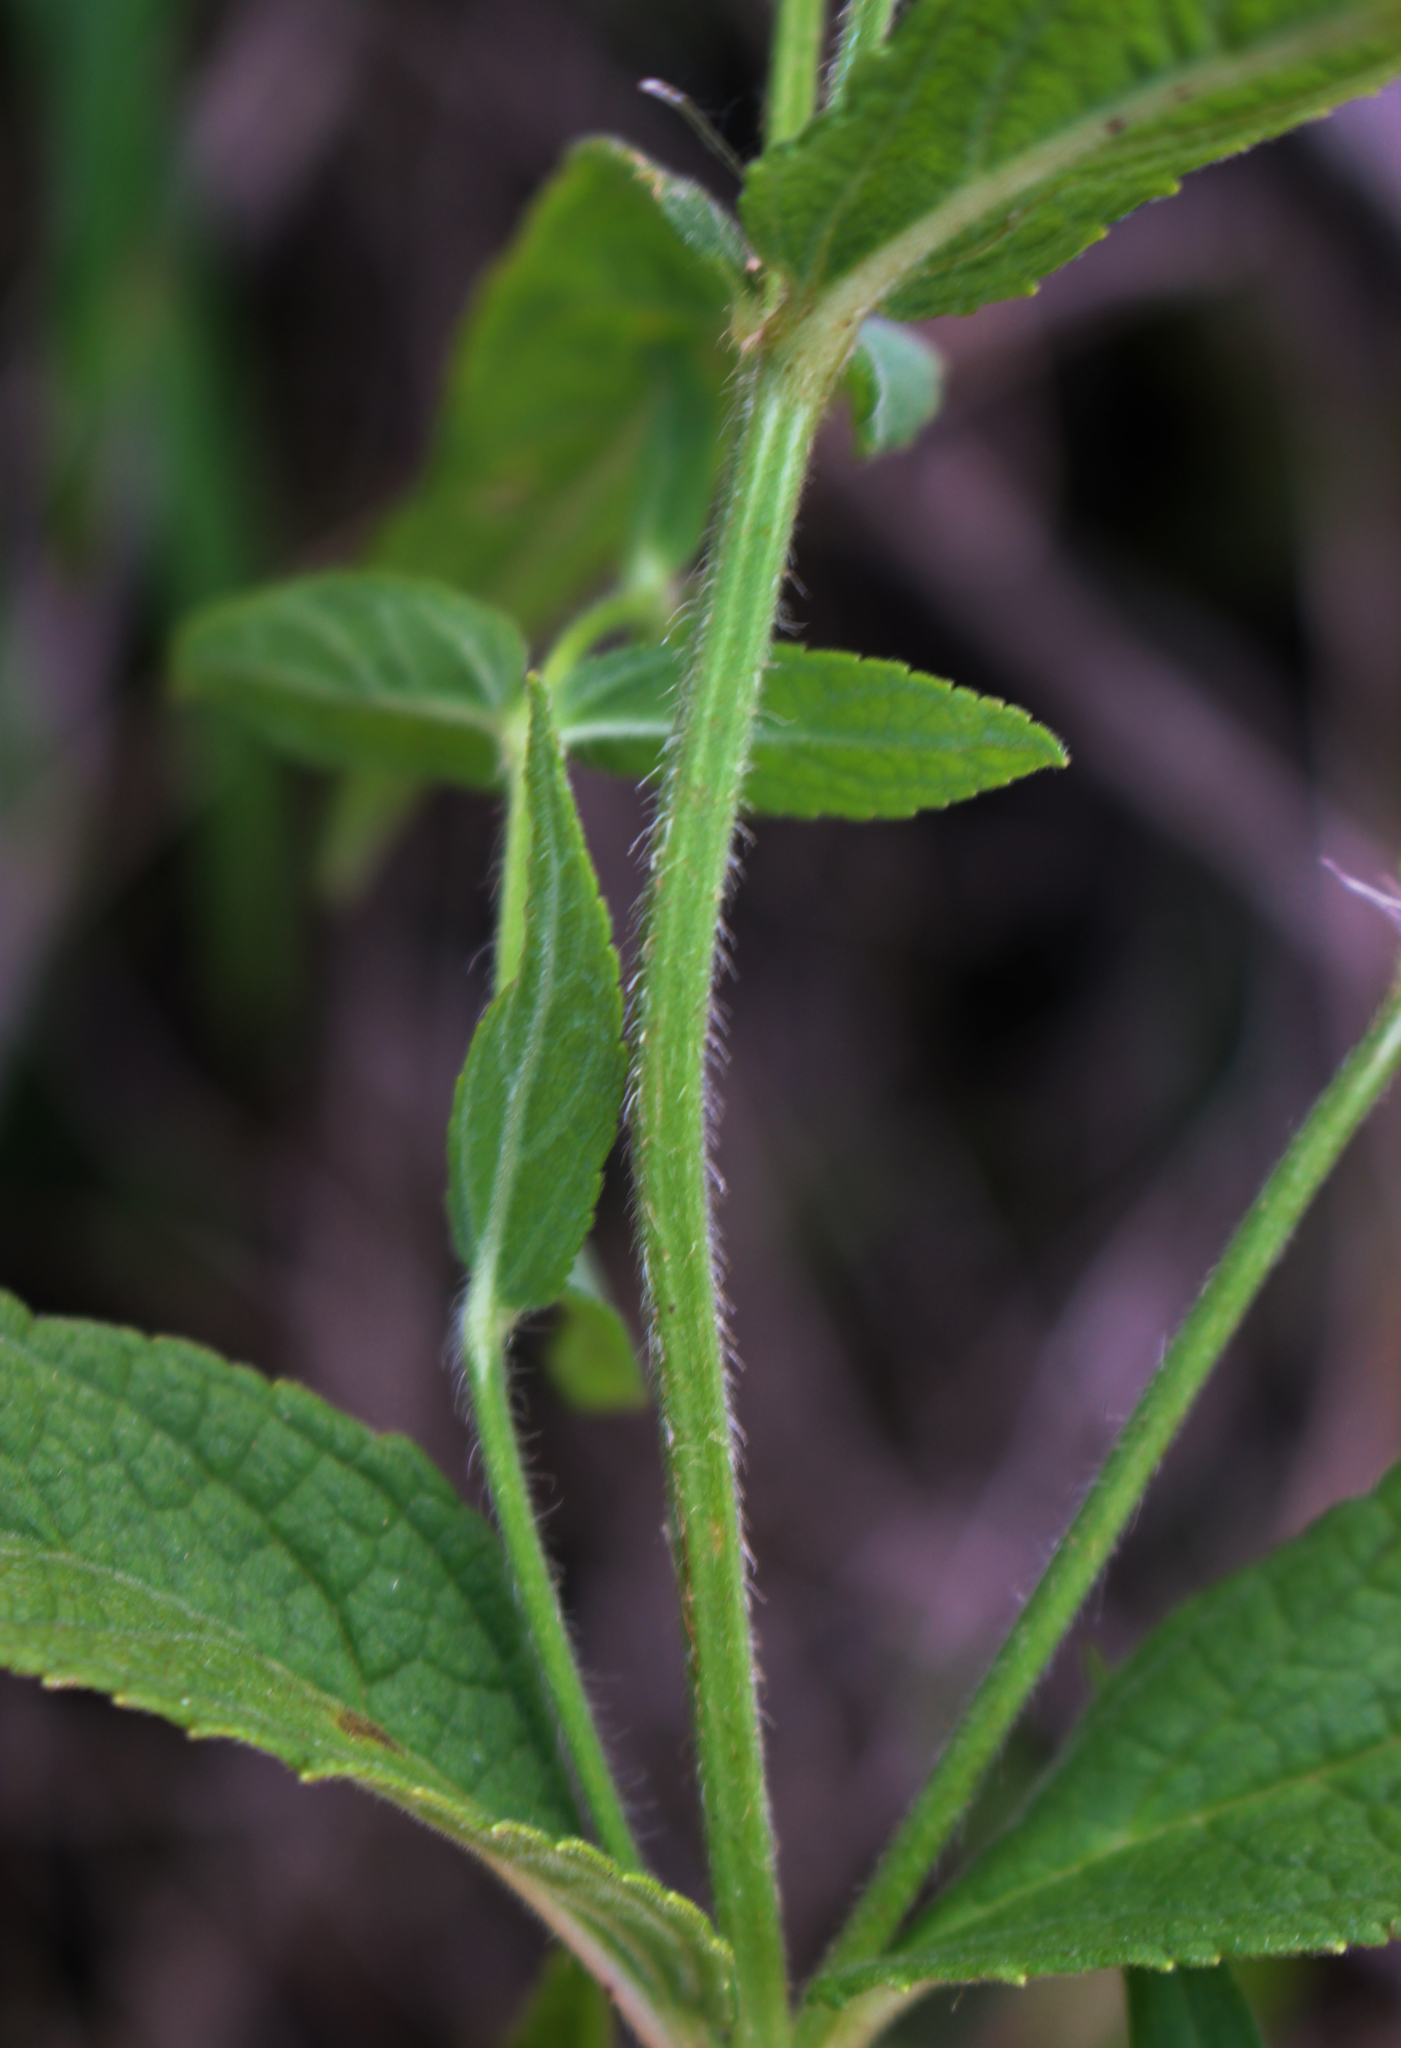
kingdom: Plantae
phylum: Tracheophyta
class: Magnoliopsida
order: Lamiales
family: Lamiaceae
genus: Stachys
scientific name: Stachys palustris
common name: Marsh woundwort
